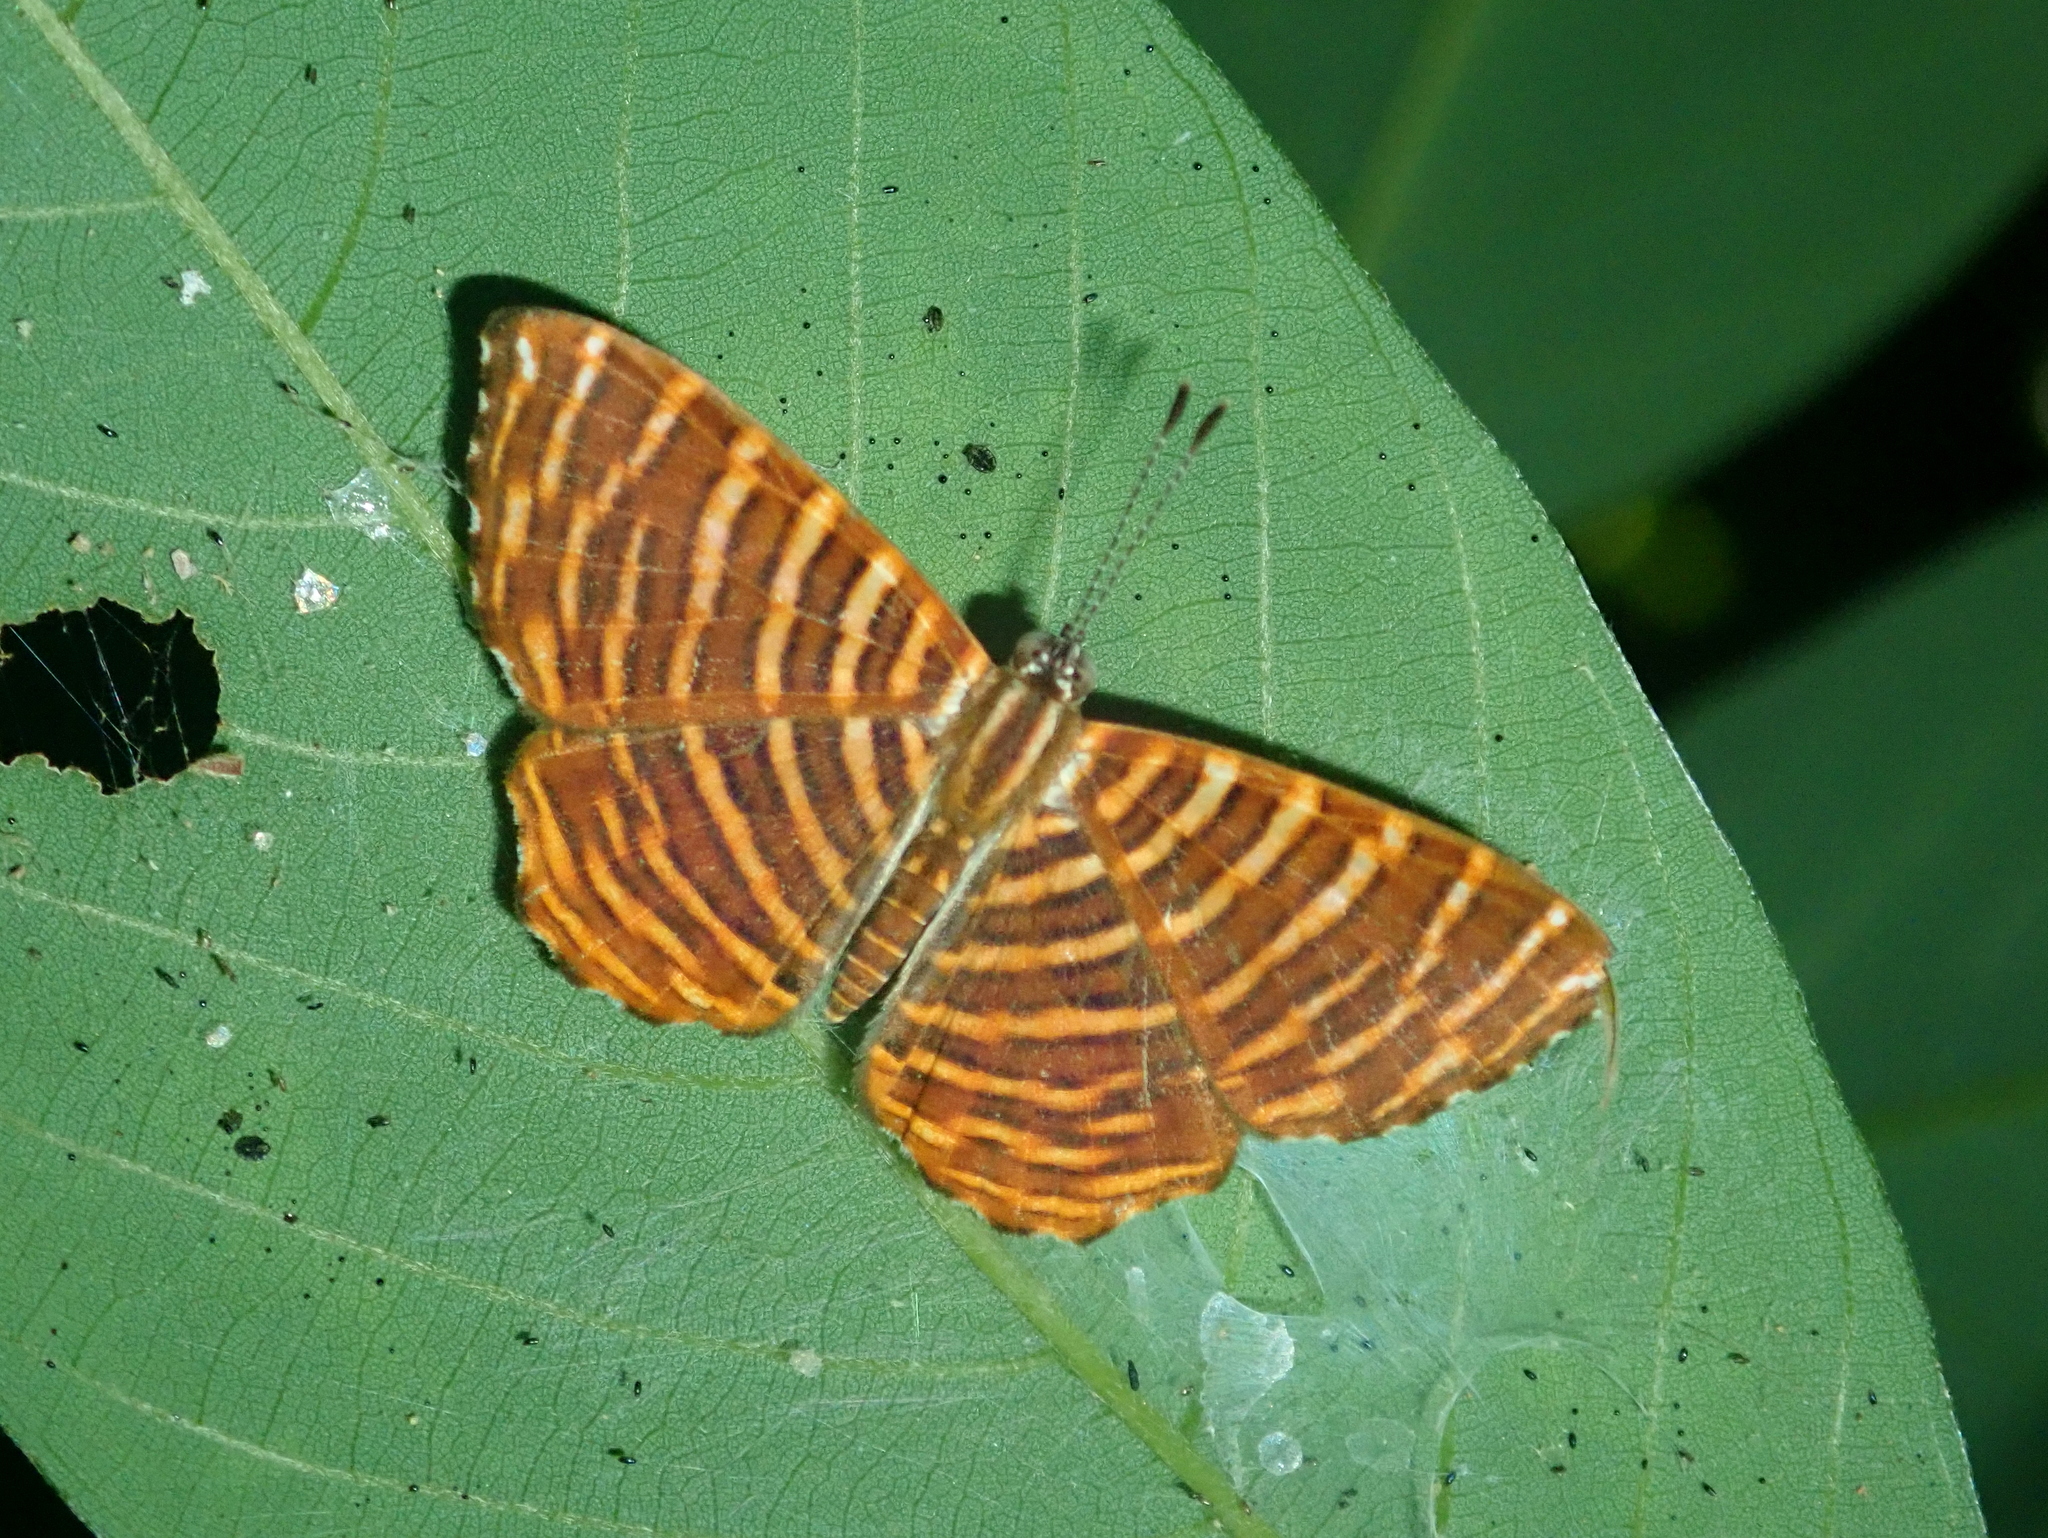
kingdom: Animalia
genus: Hyphilaria
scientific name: Hyphilaria thasus
